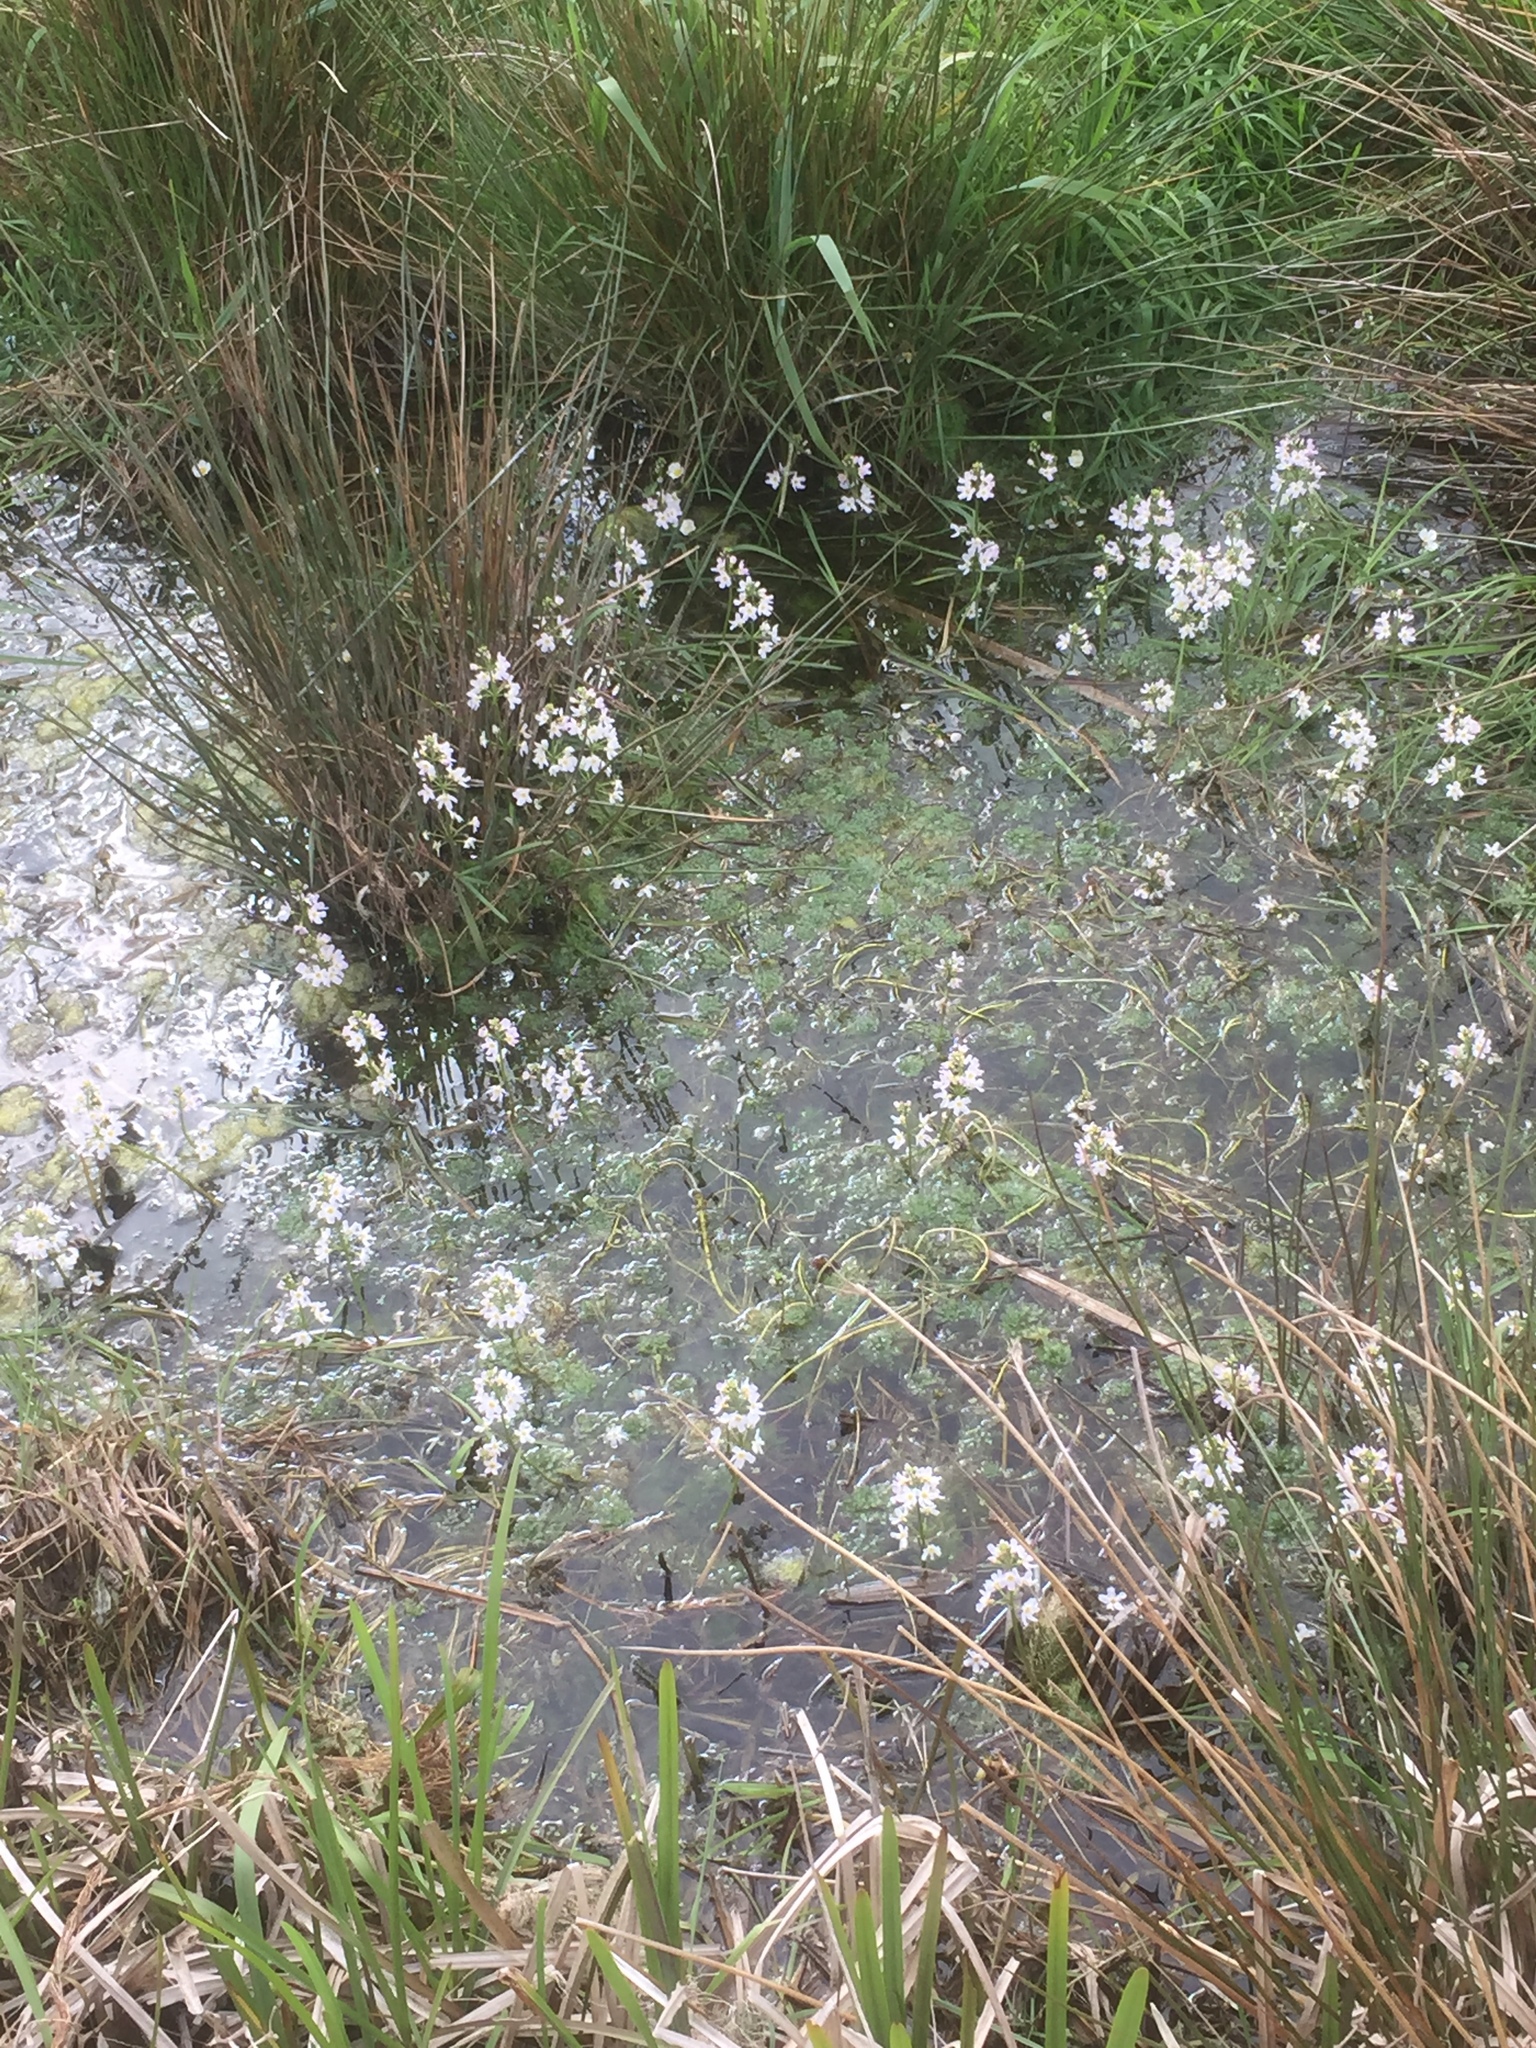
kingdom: Plantae
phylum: Tracheophyta
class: Magnoliopsida
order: Ericales
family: Primulaceae
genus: Hottonia
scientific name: Hottonia palustris
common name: Water-violet
